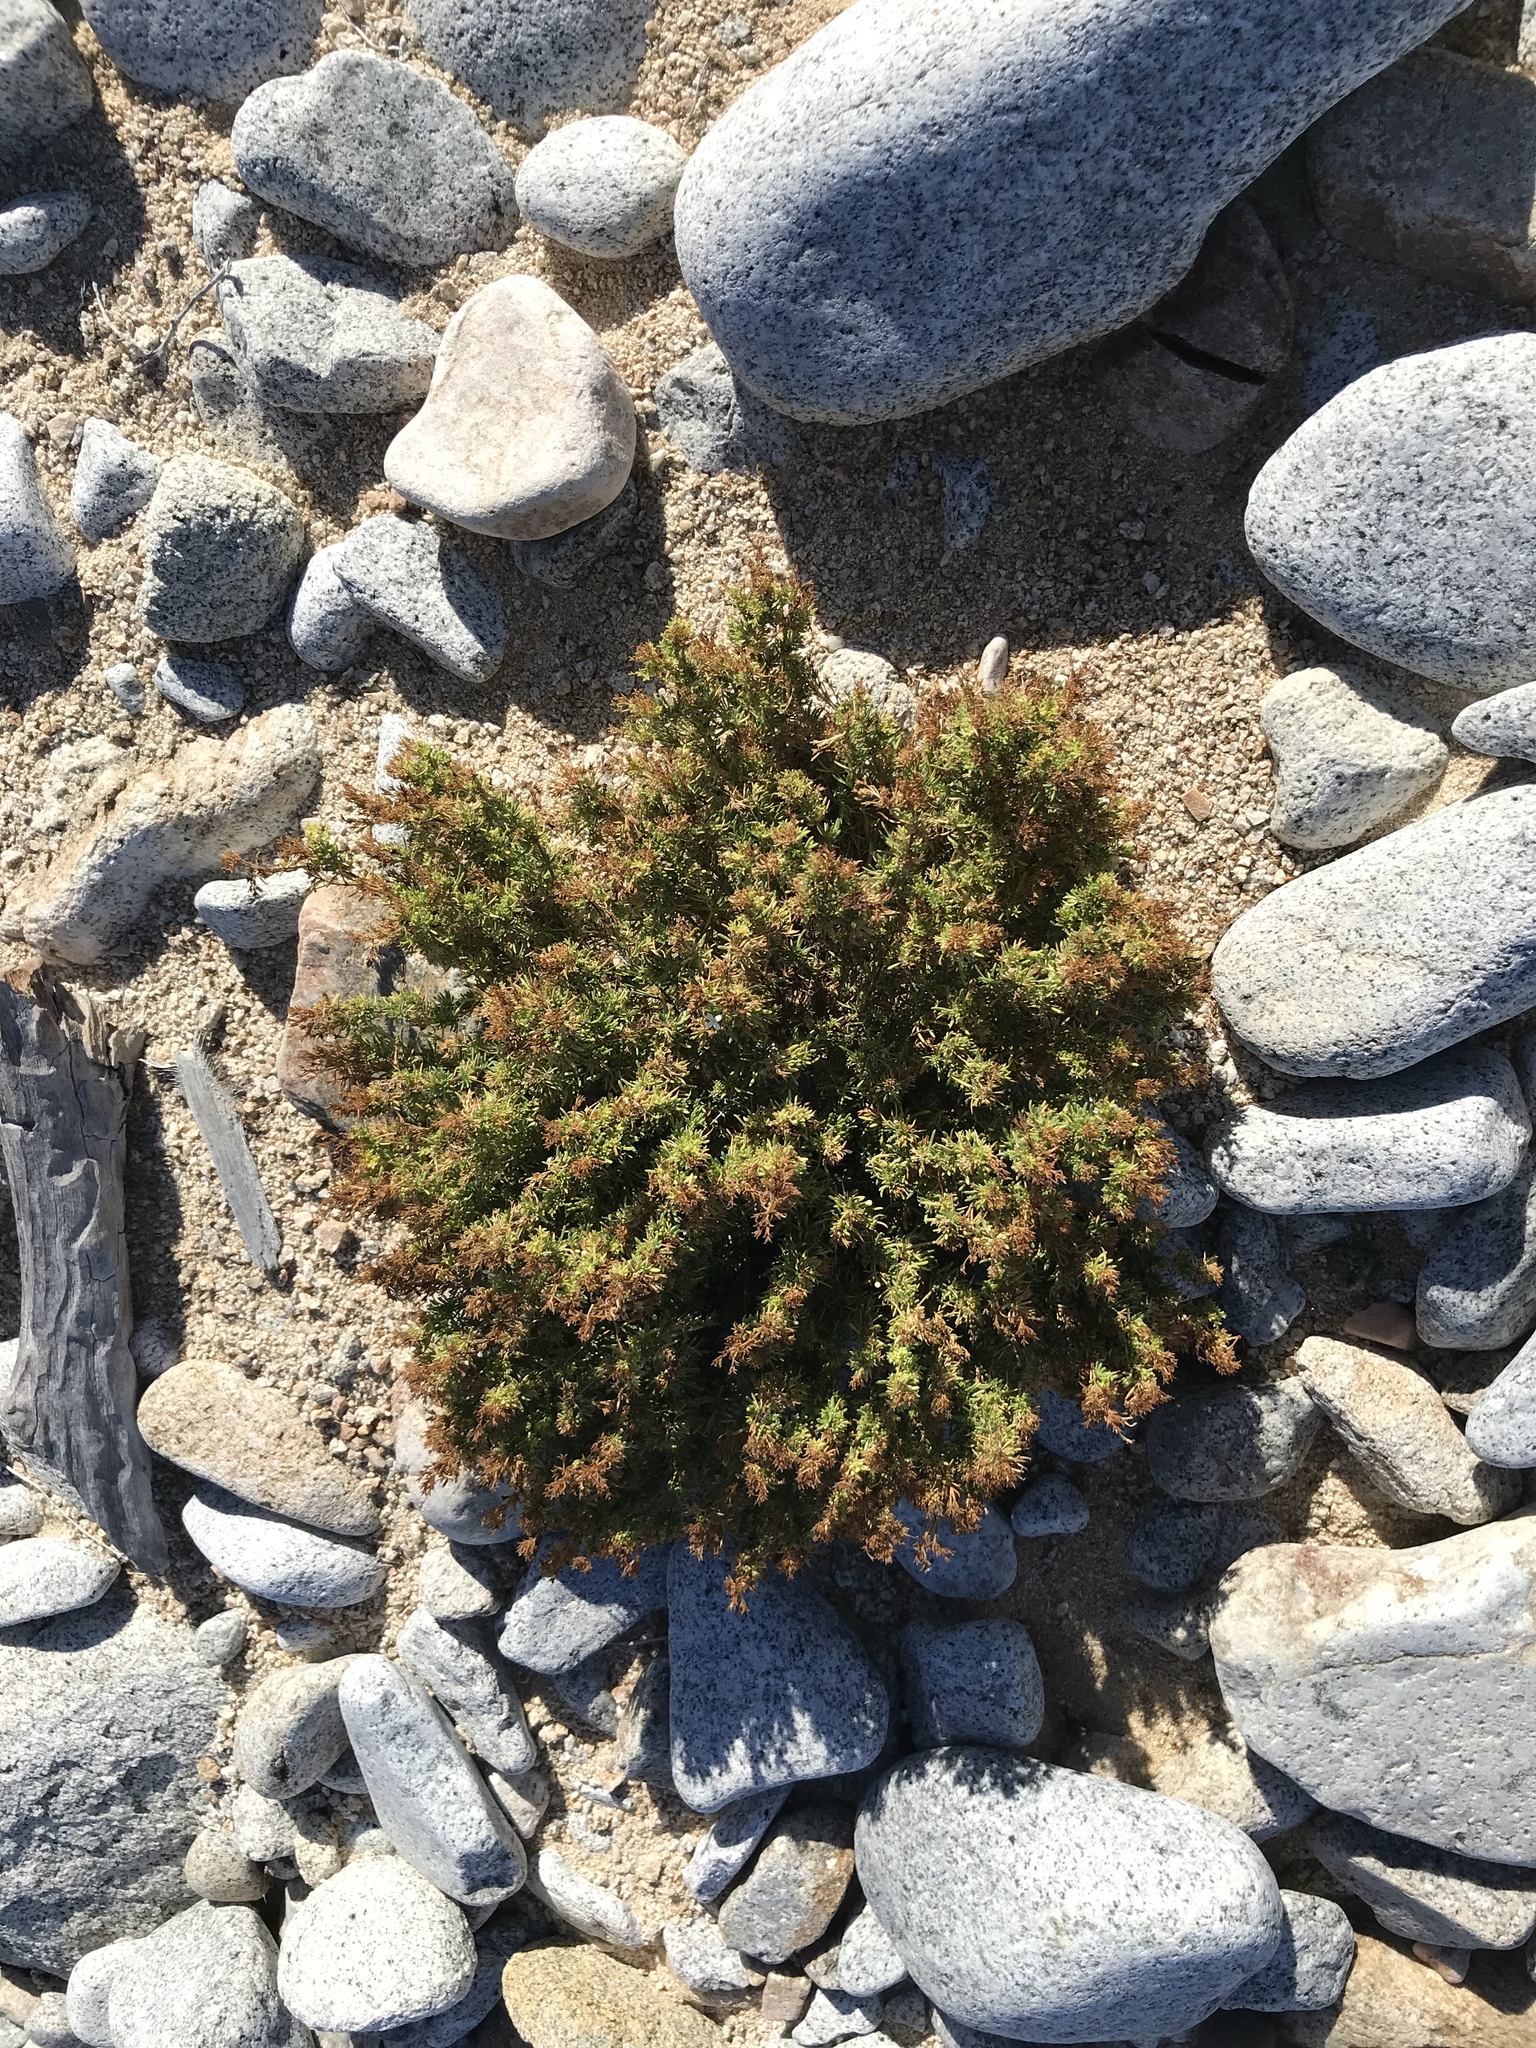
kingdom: Plantae
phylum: Tracheophyta
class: Magnoliopsida
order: Gentianales
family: Rubiaceae
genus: Stenotis
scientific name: Stenotis mucronata
